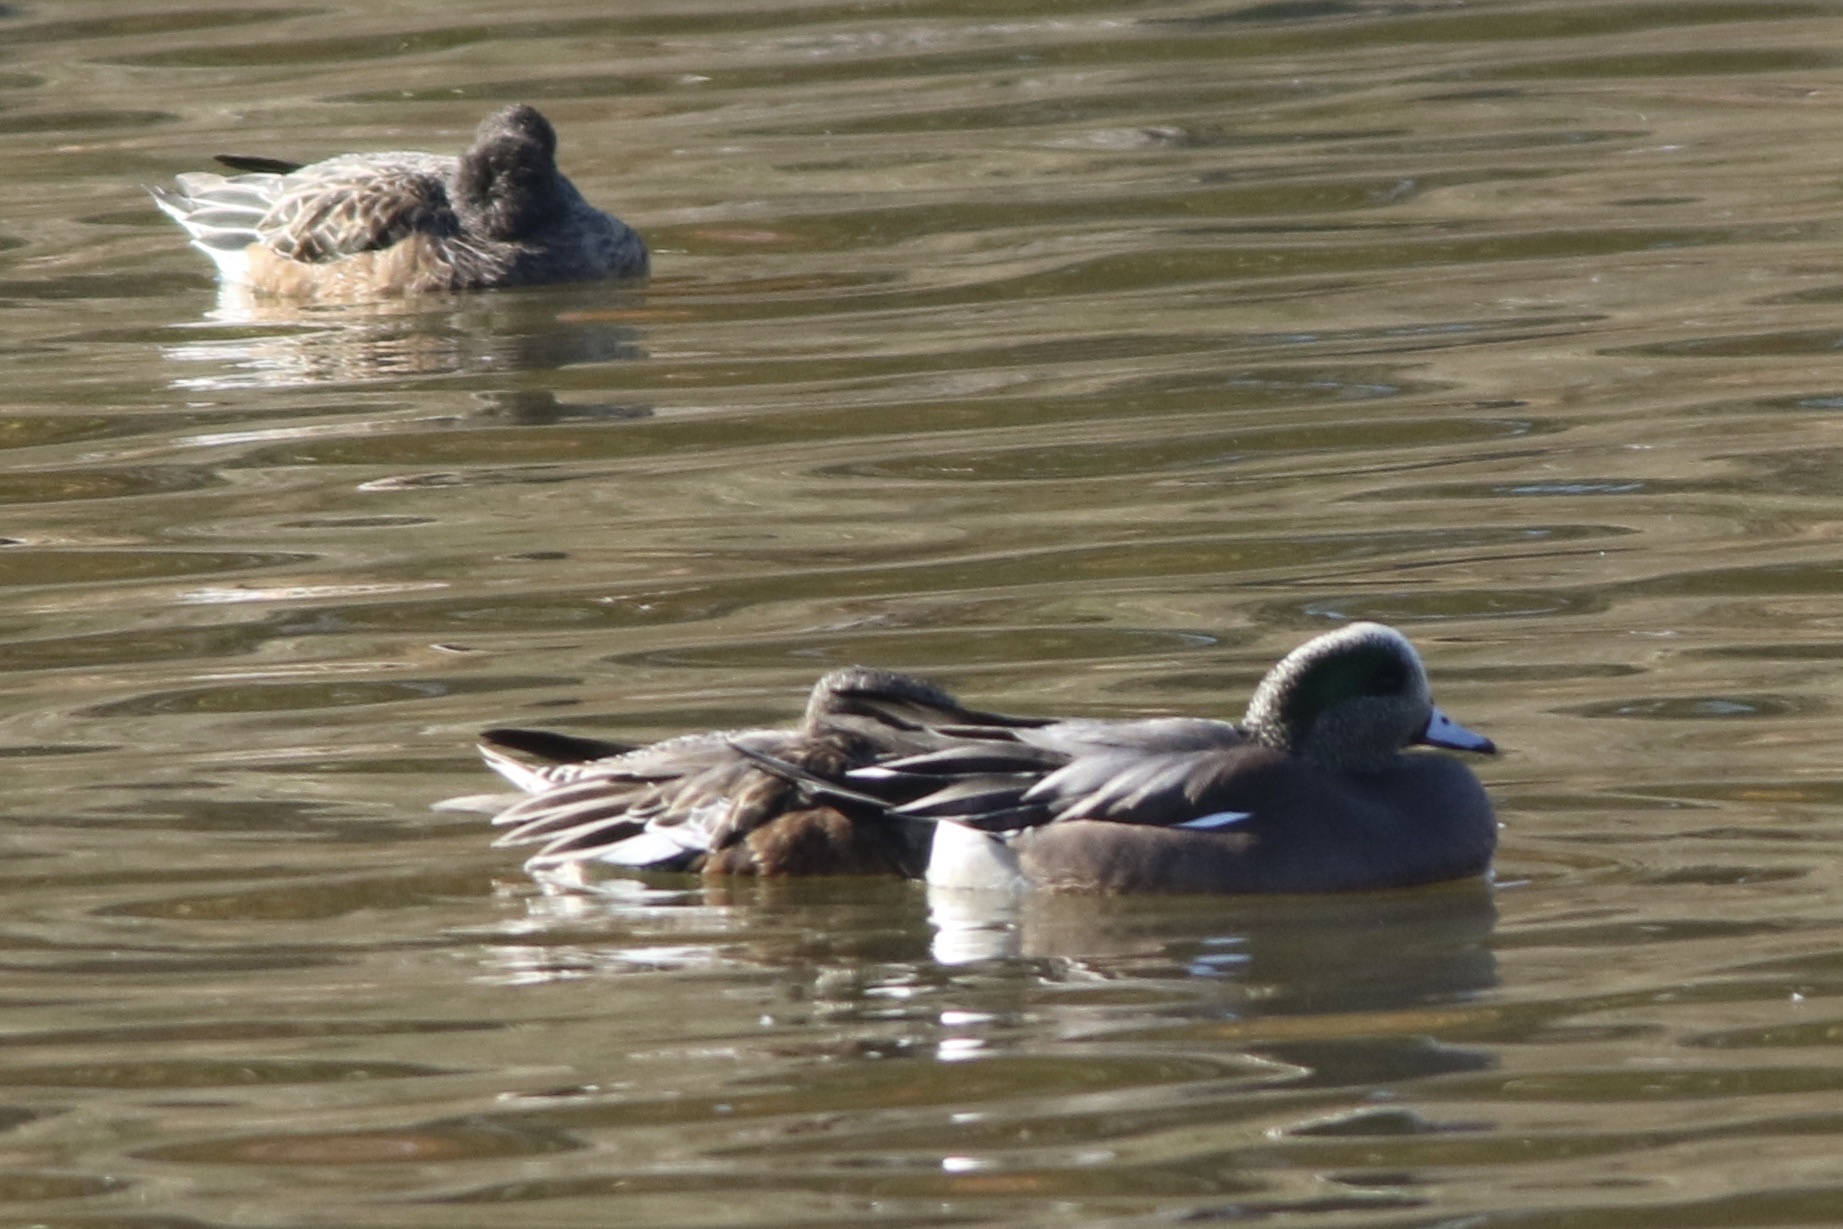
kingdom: Animalia
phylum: Chordata
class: Aves
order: Anseriformes
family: Anatidae
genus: Mareca
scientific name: Mareca americana
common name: American wigeon
